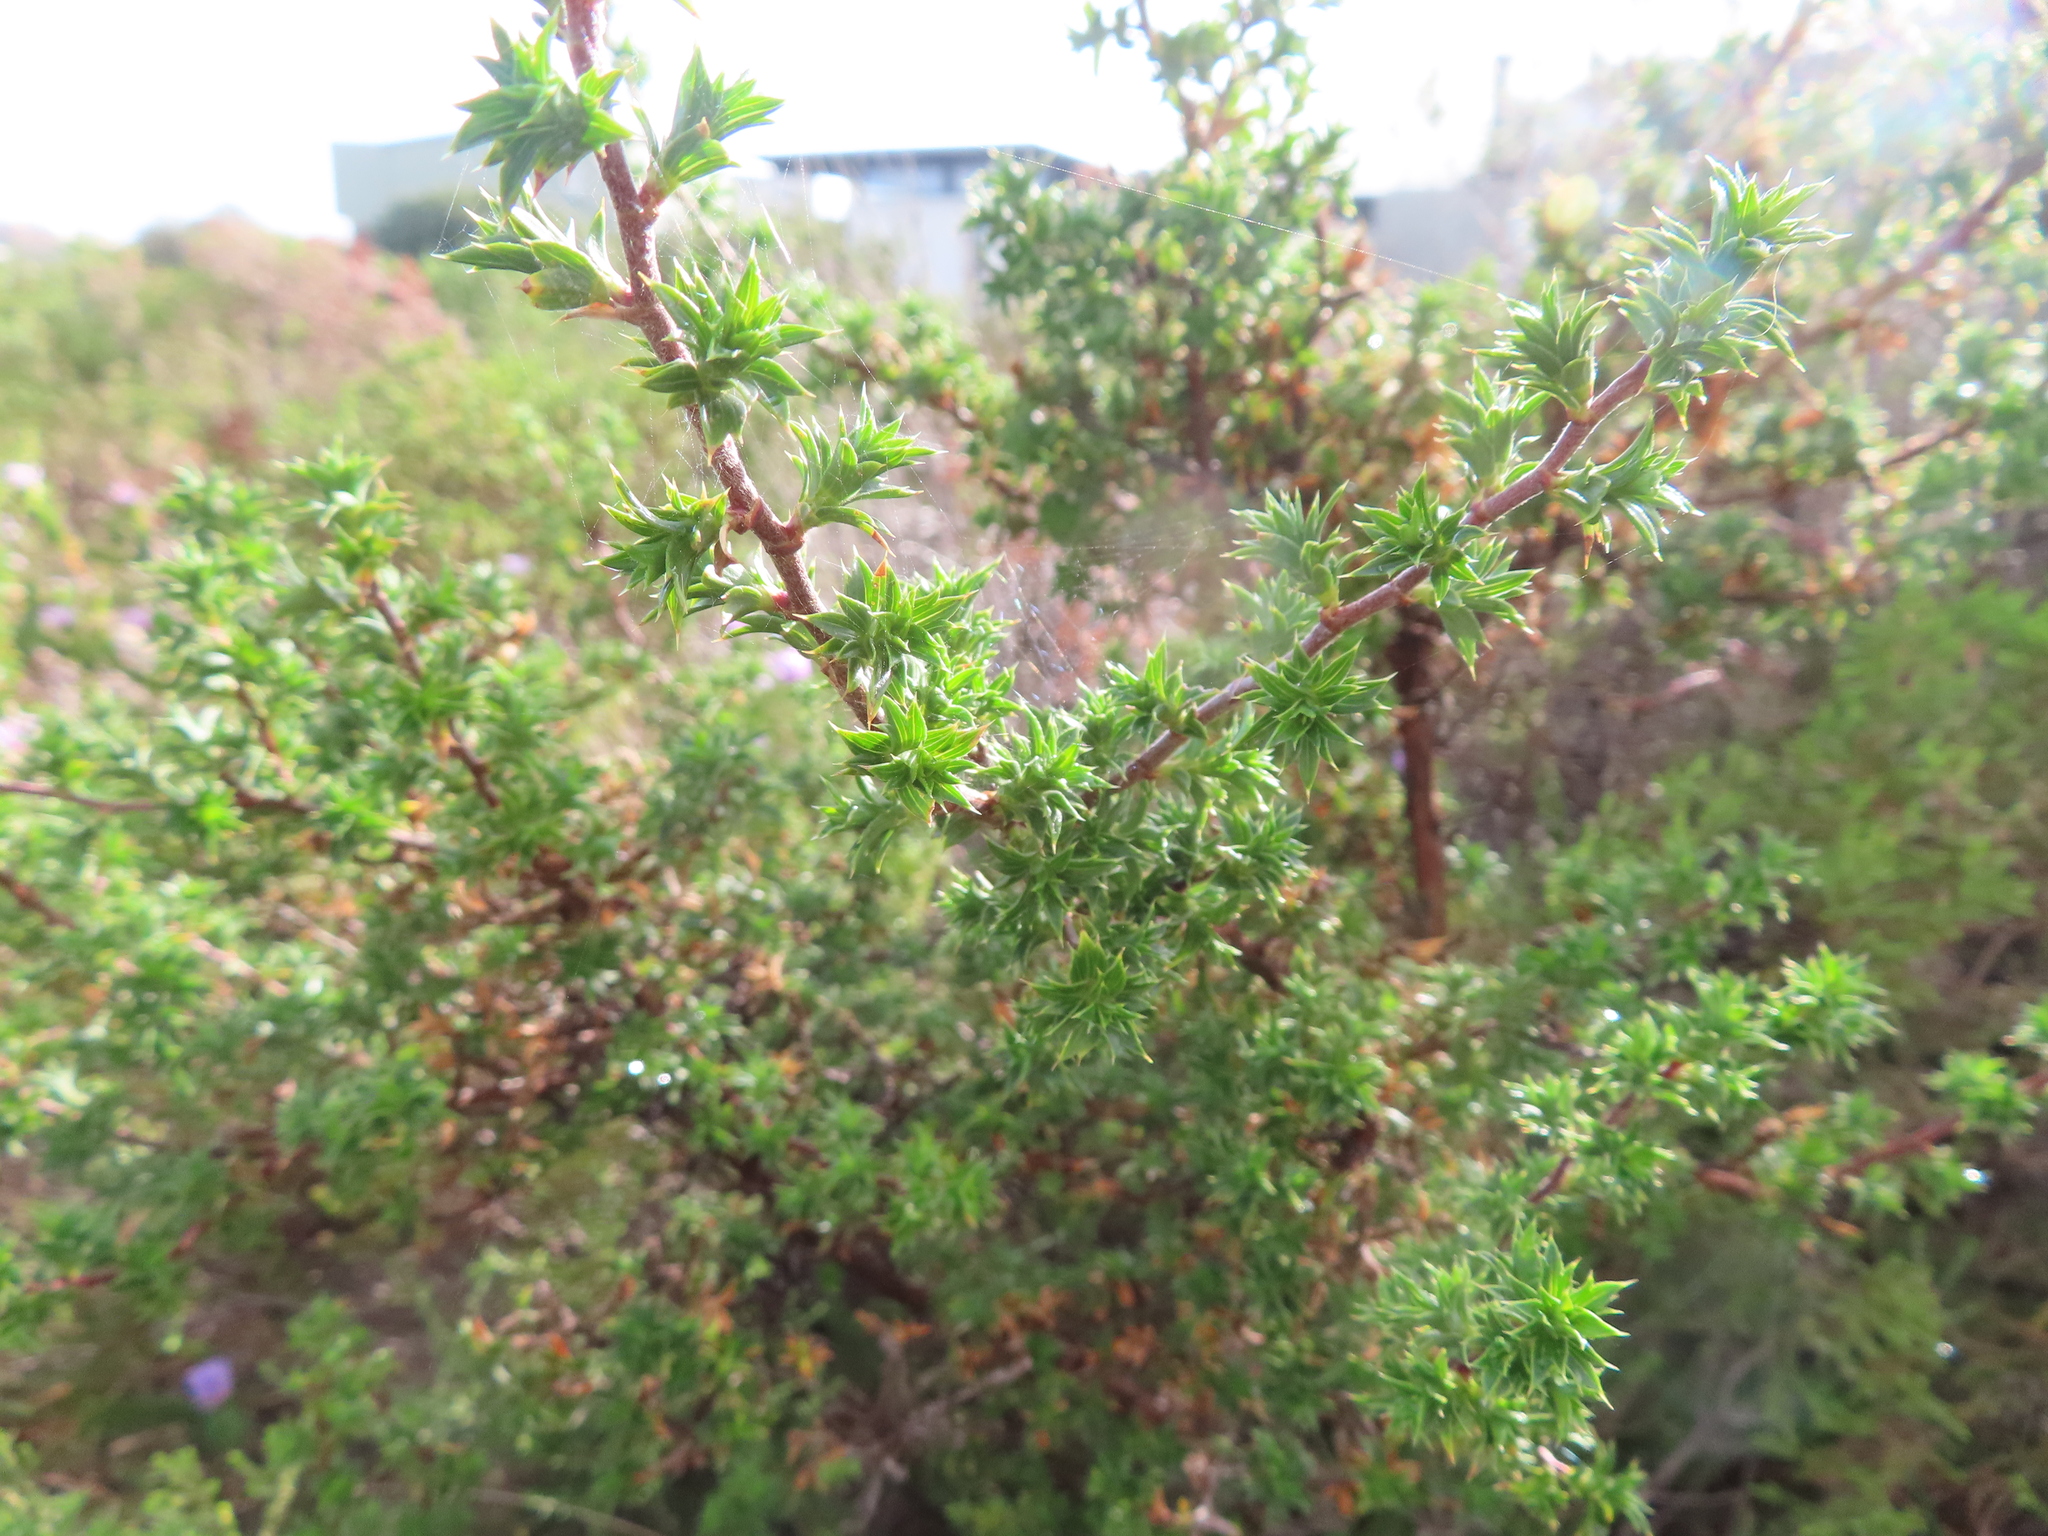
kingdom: Plantae
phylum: Tracheophyta
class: Magnoliopsida
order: Rosales
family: Rosaceae
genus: Cliffortia
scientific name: Cliffortia ruscifolia
